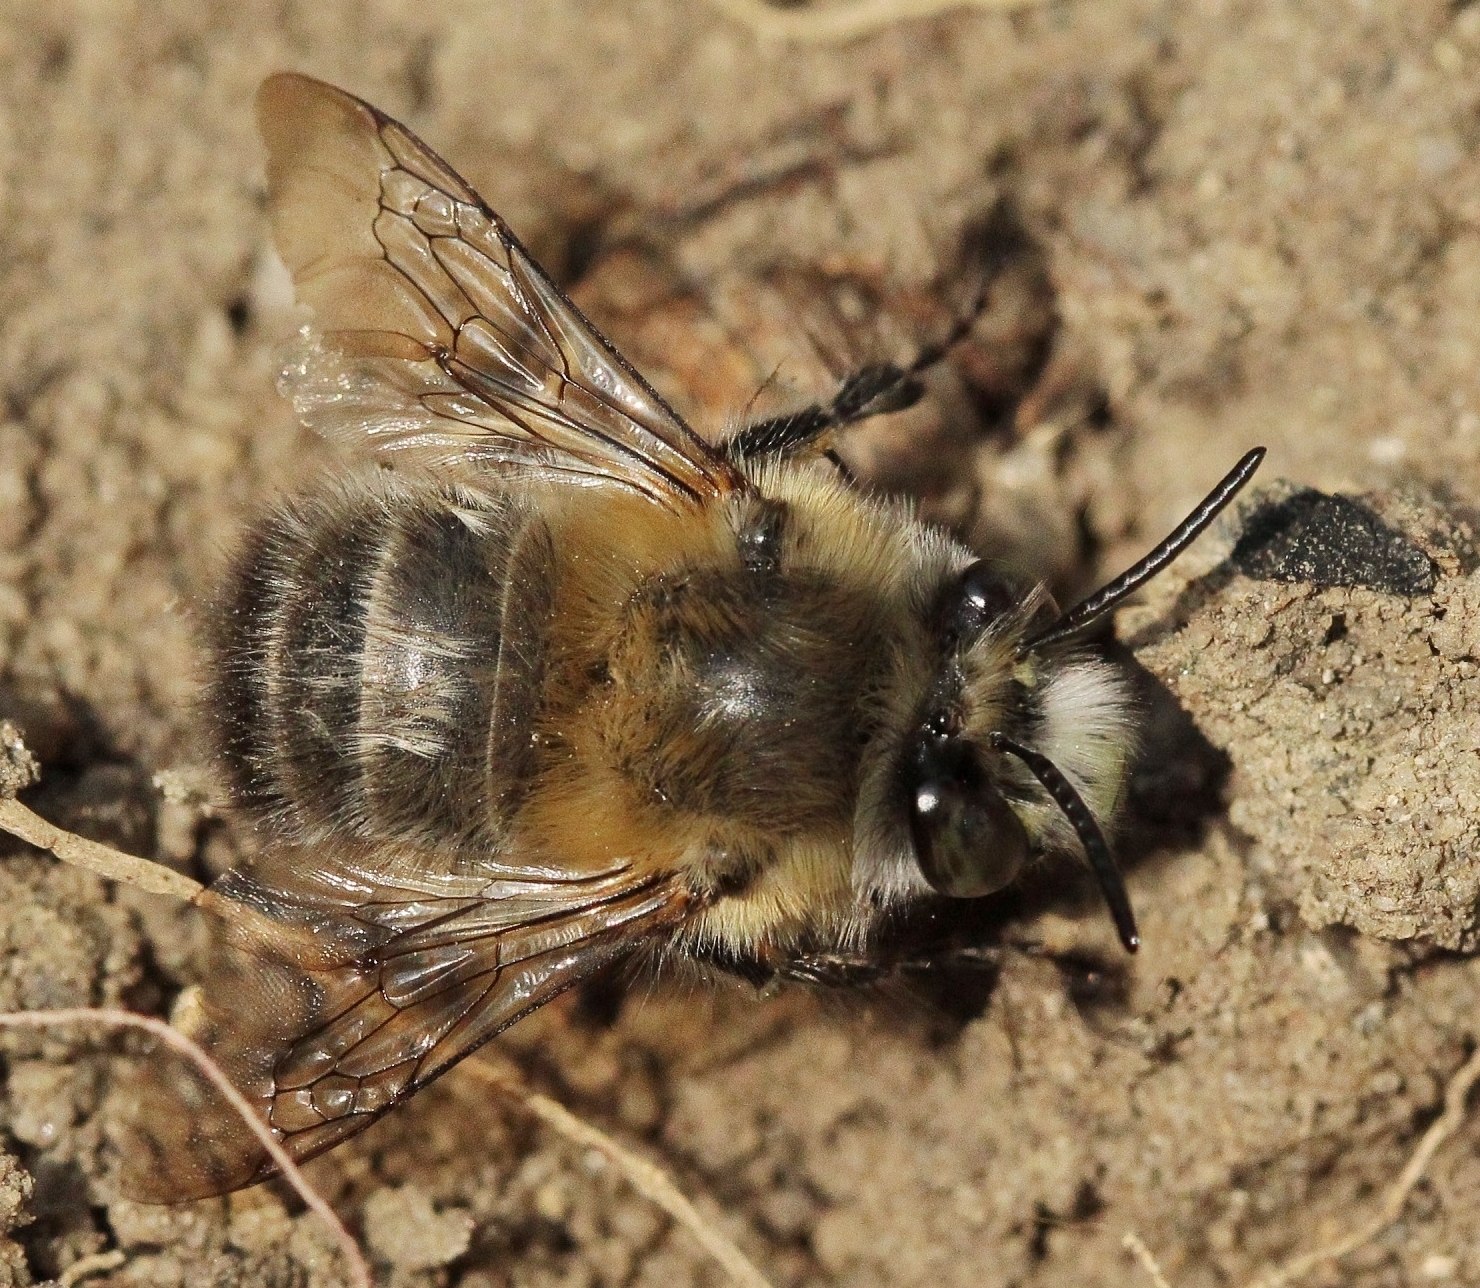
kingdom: Animalia
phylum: Arthropoda
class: Insecta
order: Hymenoptera
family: Apidae
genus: Anthophora
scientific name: Anthophora plumipes
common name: Hairy-footed flower bee
